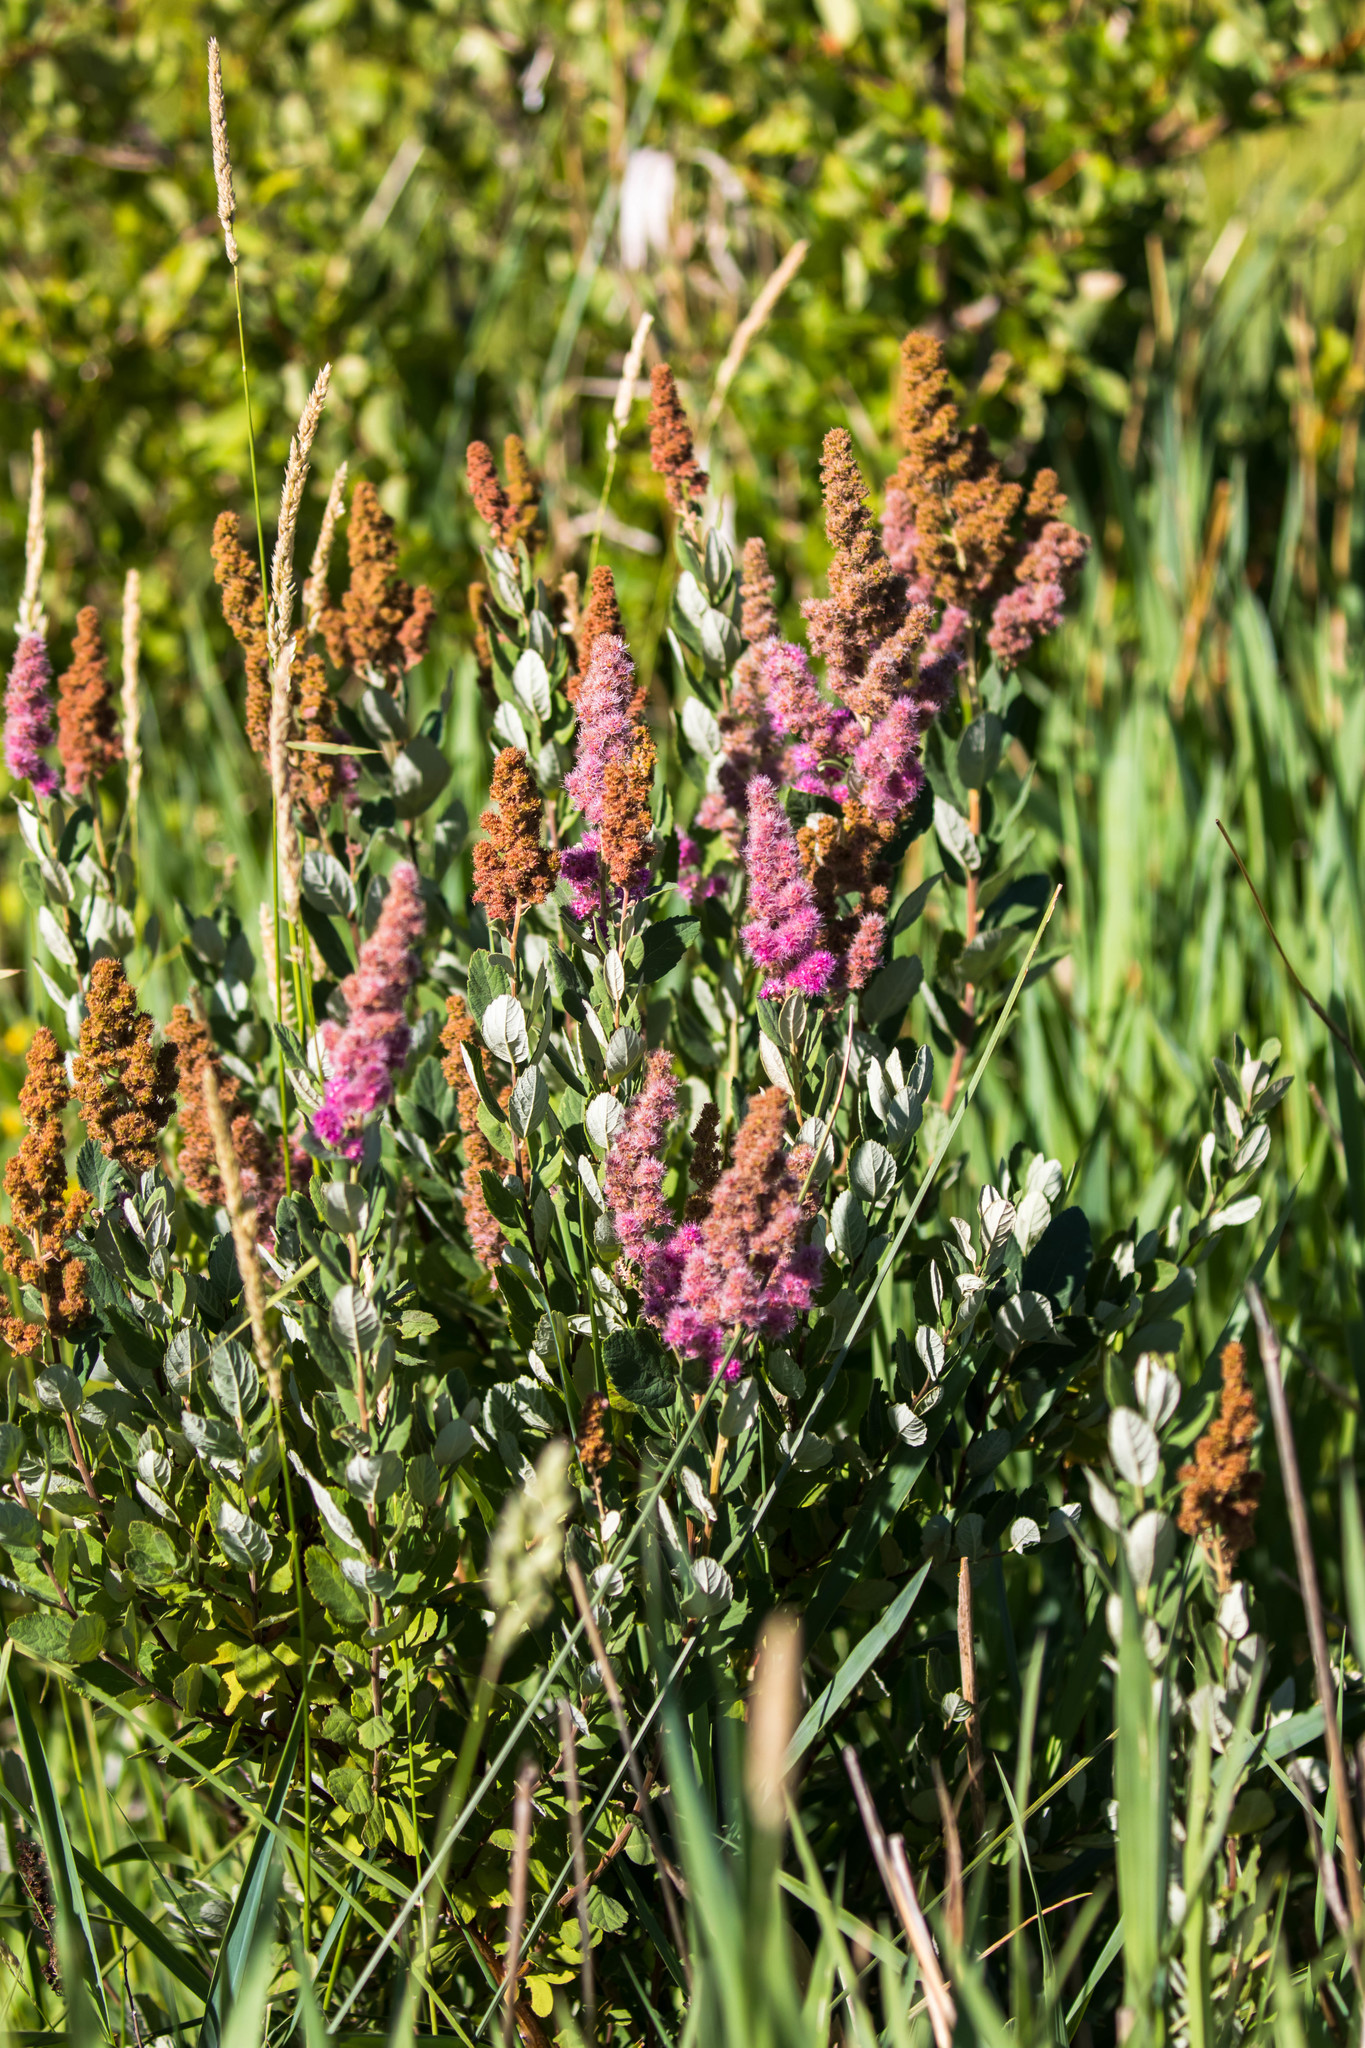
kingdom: Plantae
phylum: Tracheophyta
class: Magnoliopsida
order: Rosales
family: Rosaceae
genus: Spiraea
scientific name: Spiraea douglasii
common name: Steeplebush
